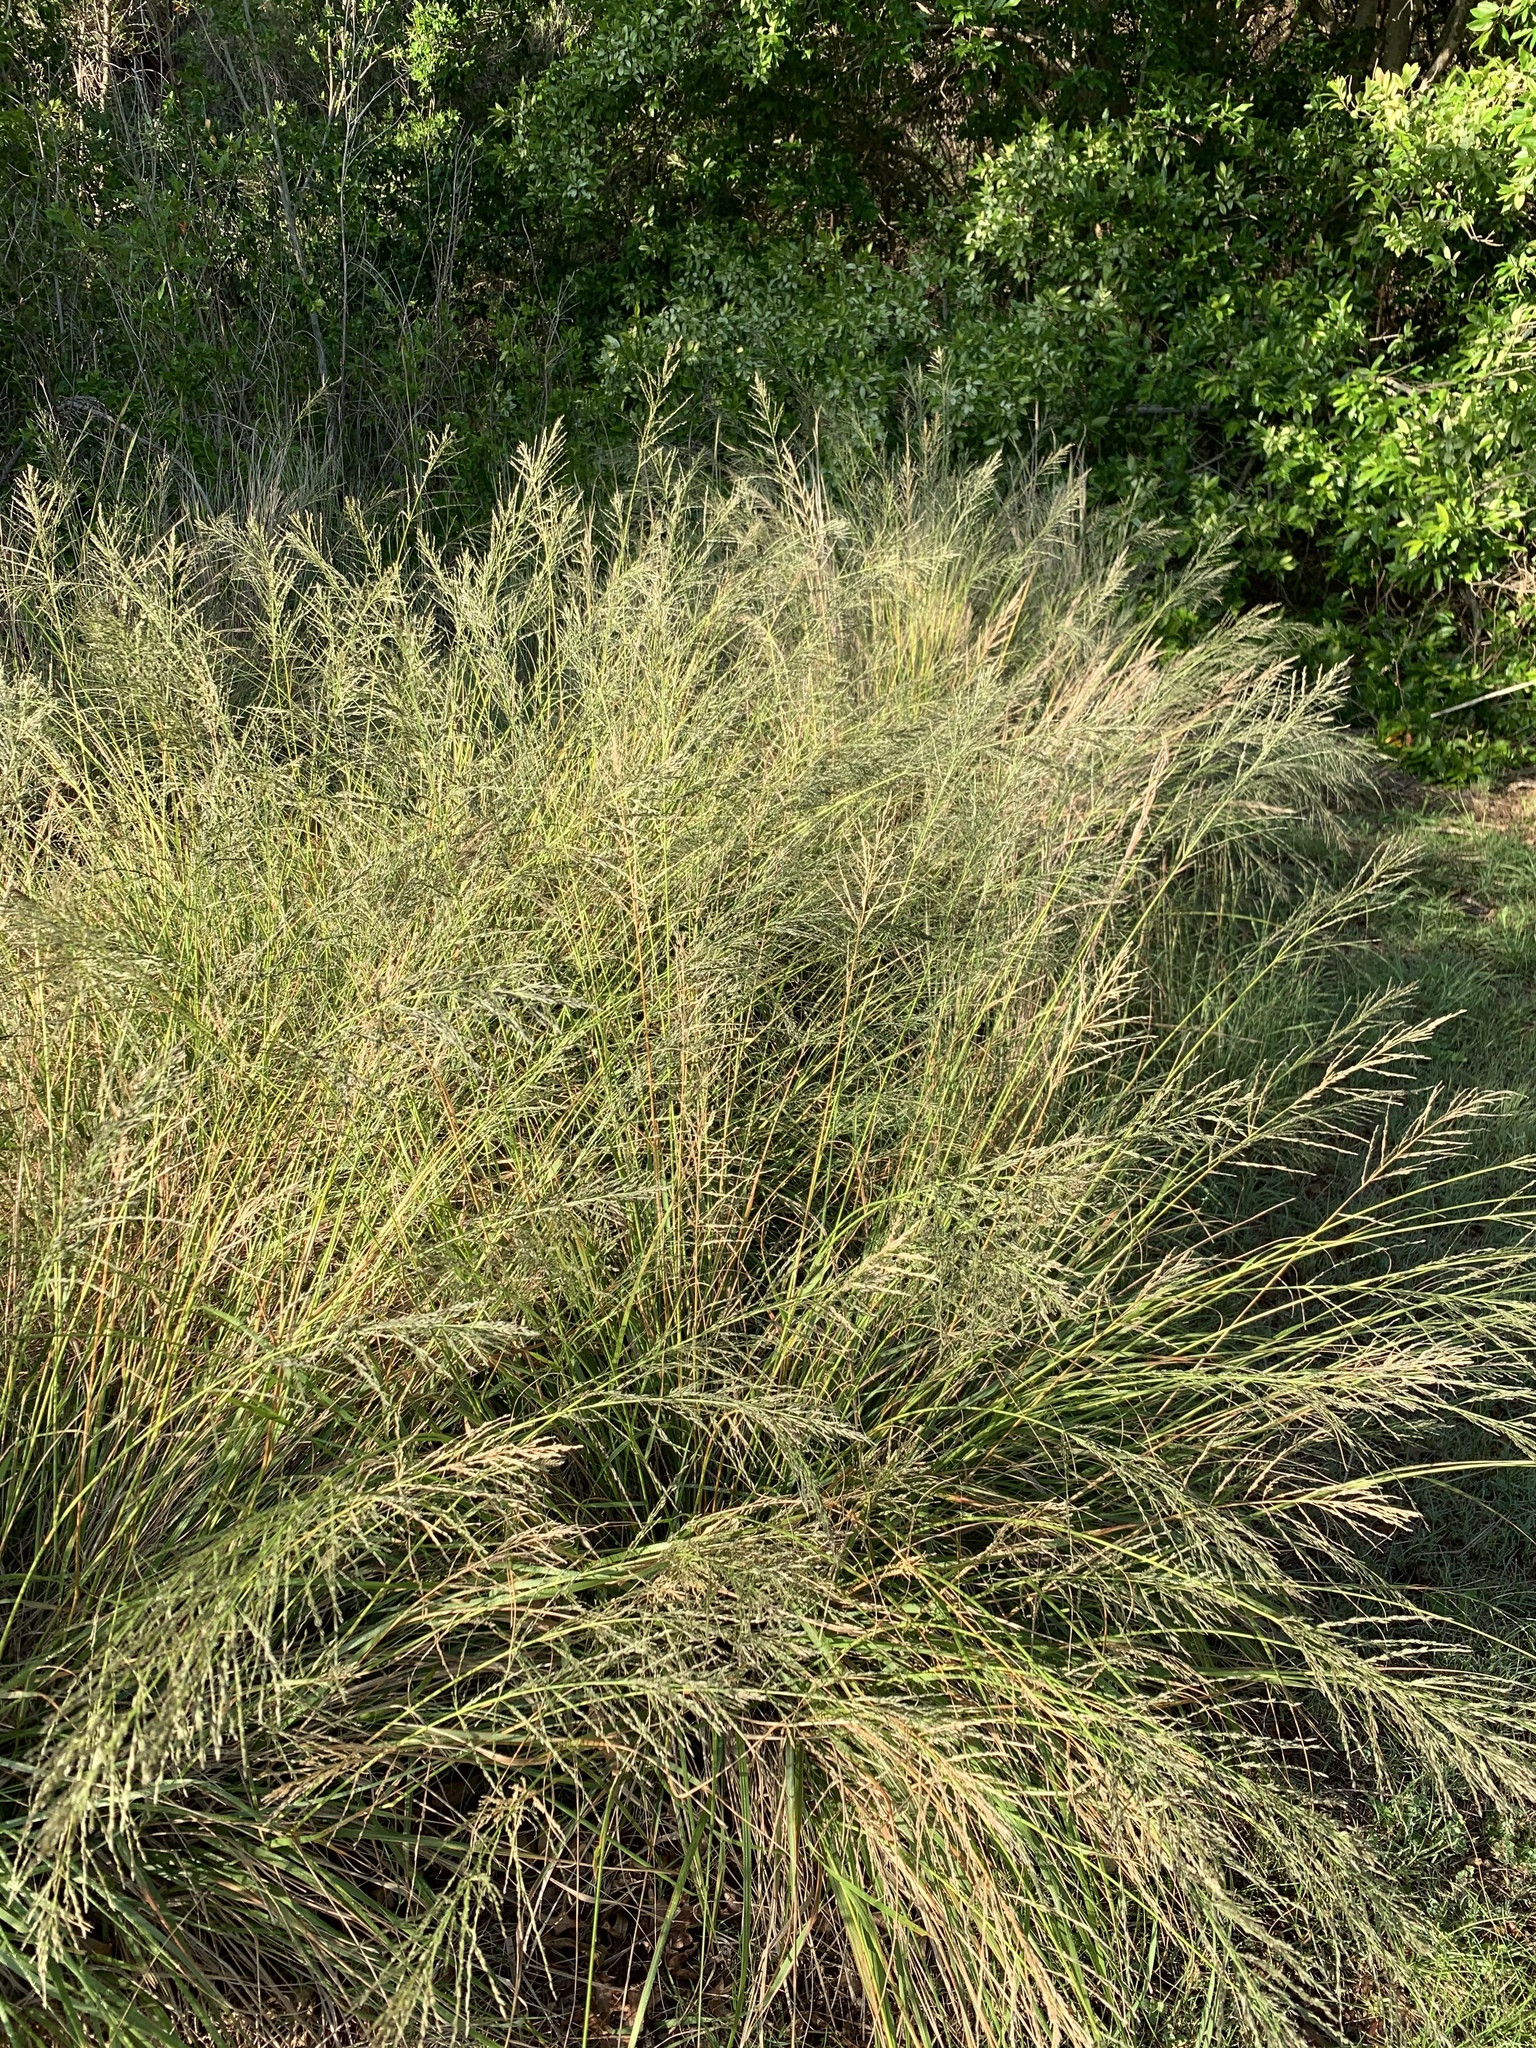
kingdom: Plantae
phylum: Tracheophyta
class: Liliopsida
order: Poales
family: Poaceae
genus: Eragrostis
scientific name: Eragrostis curvula
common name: African love-grass
